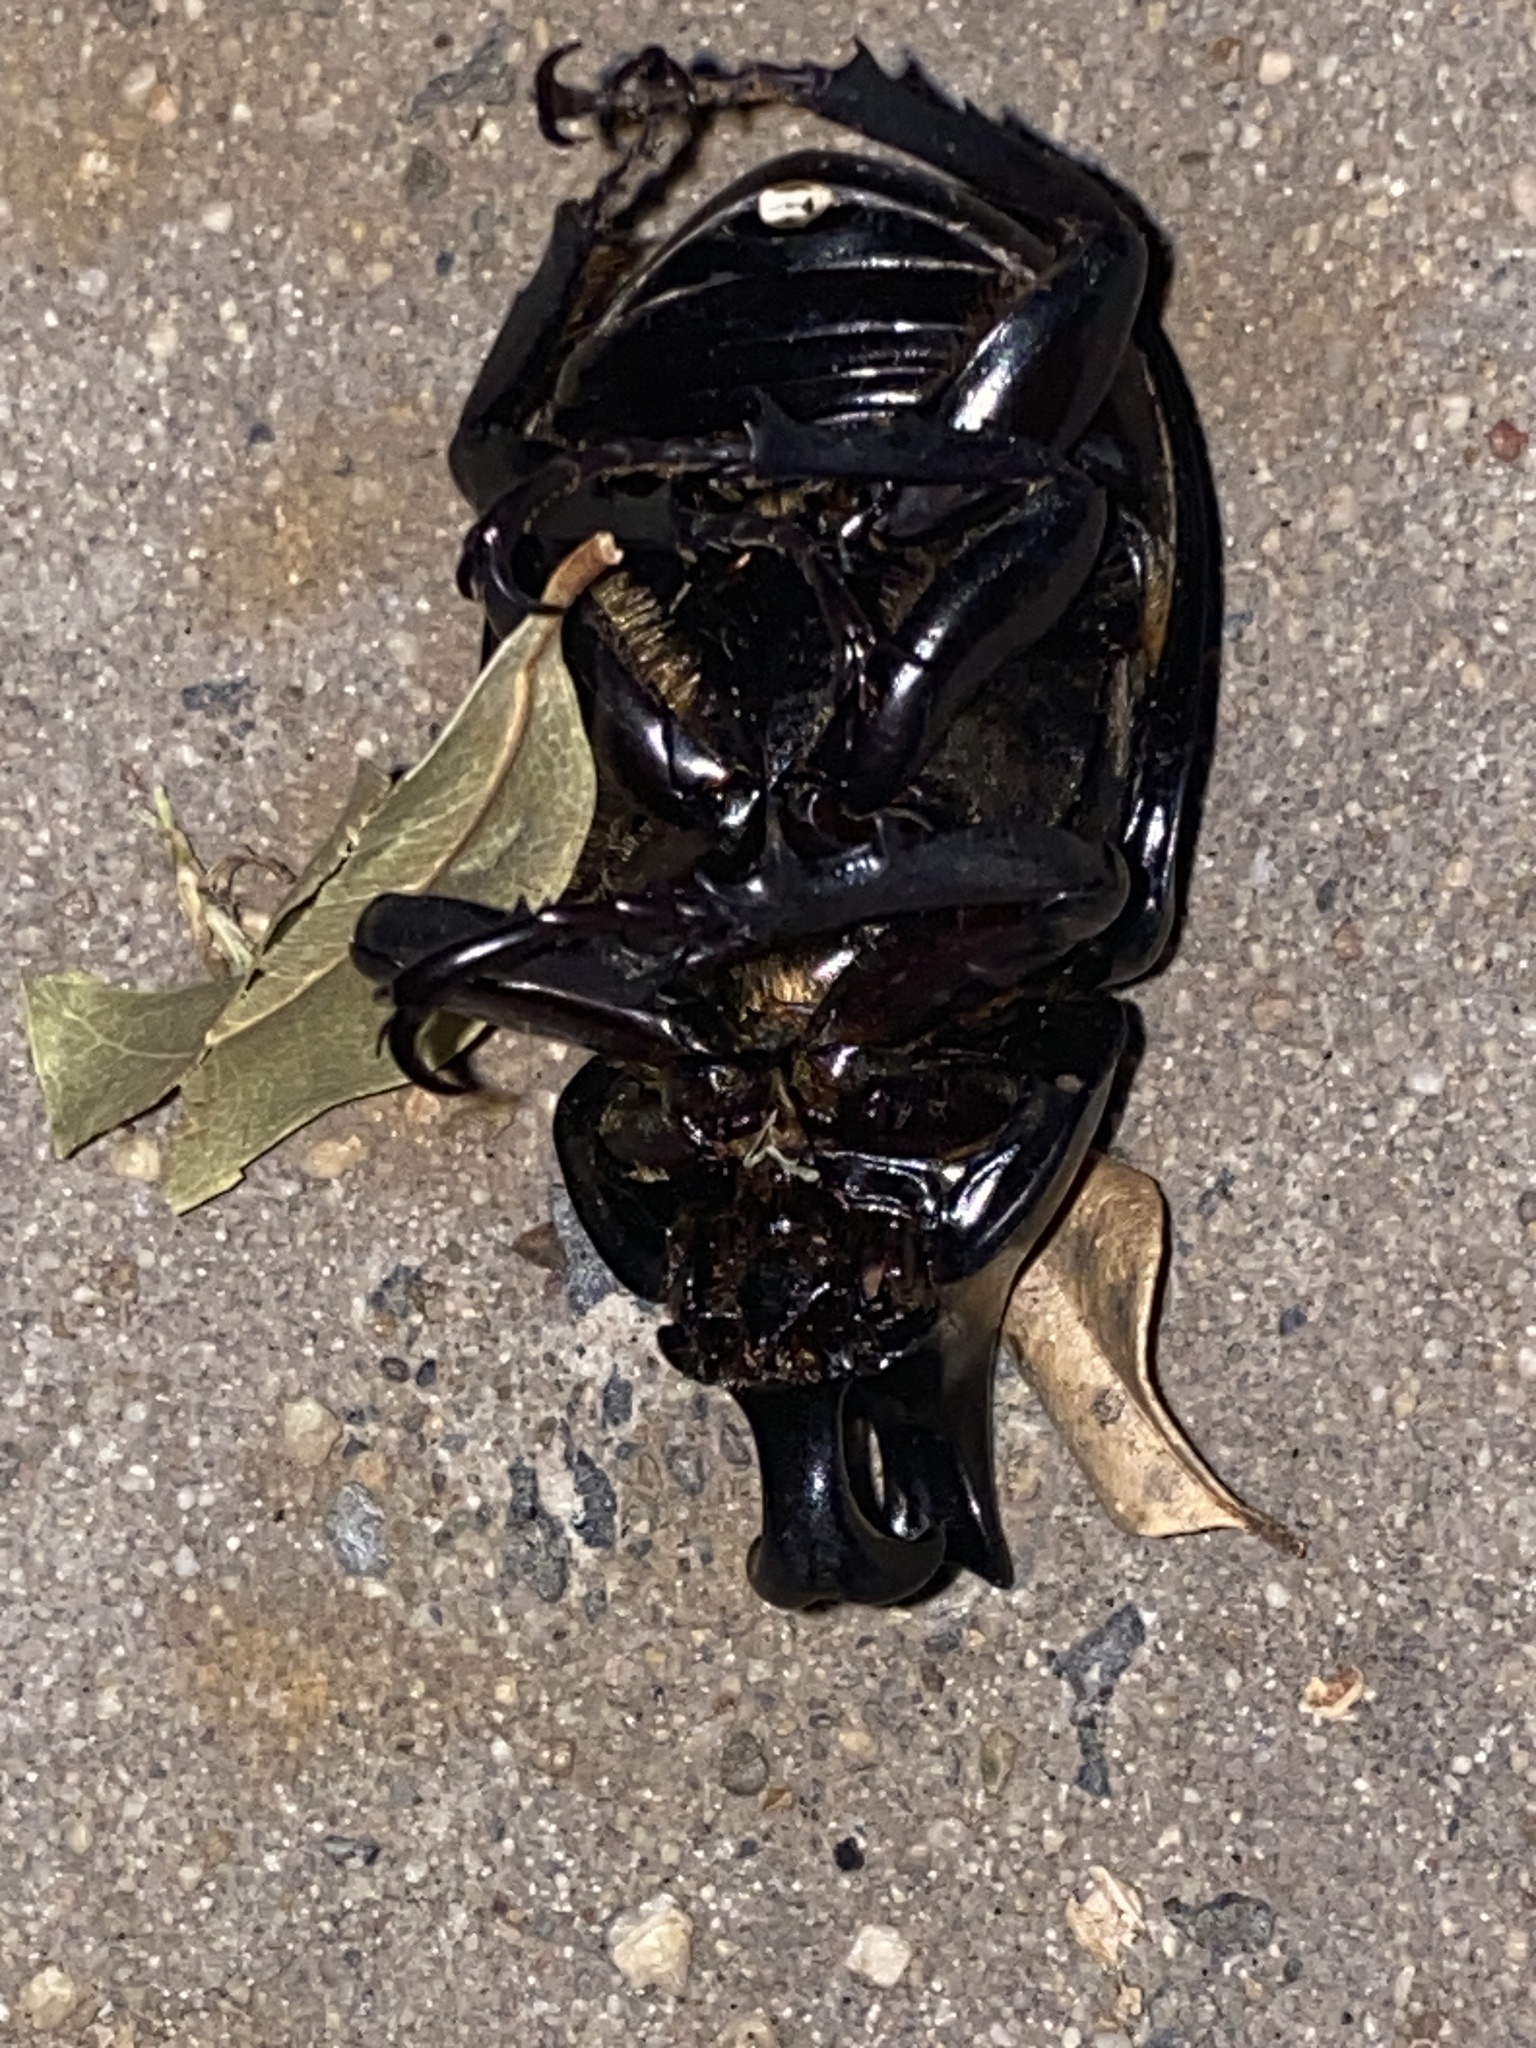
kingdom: Animalia
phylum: Arthropoda
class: Insecta
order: Coleoptera
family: Scarabaeidae
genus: Xylotrupes
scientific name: Xylotrupes australicus
